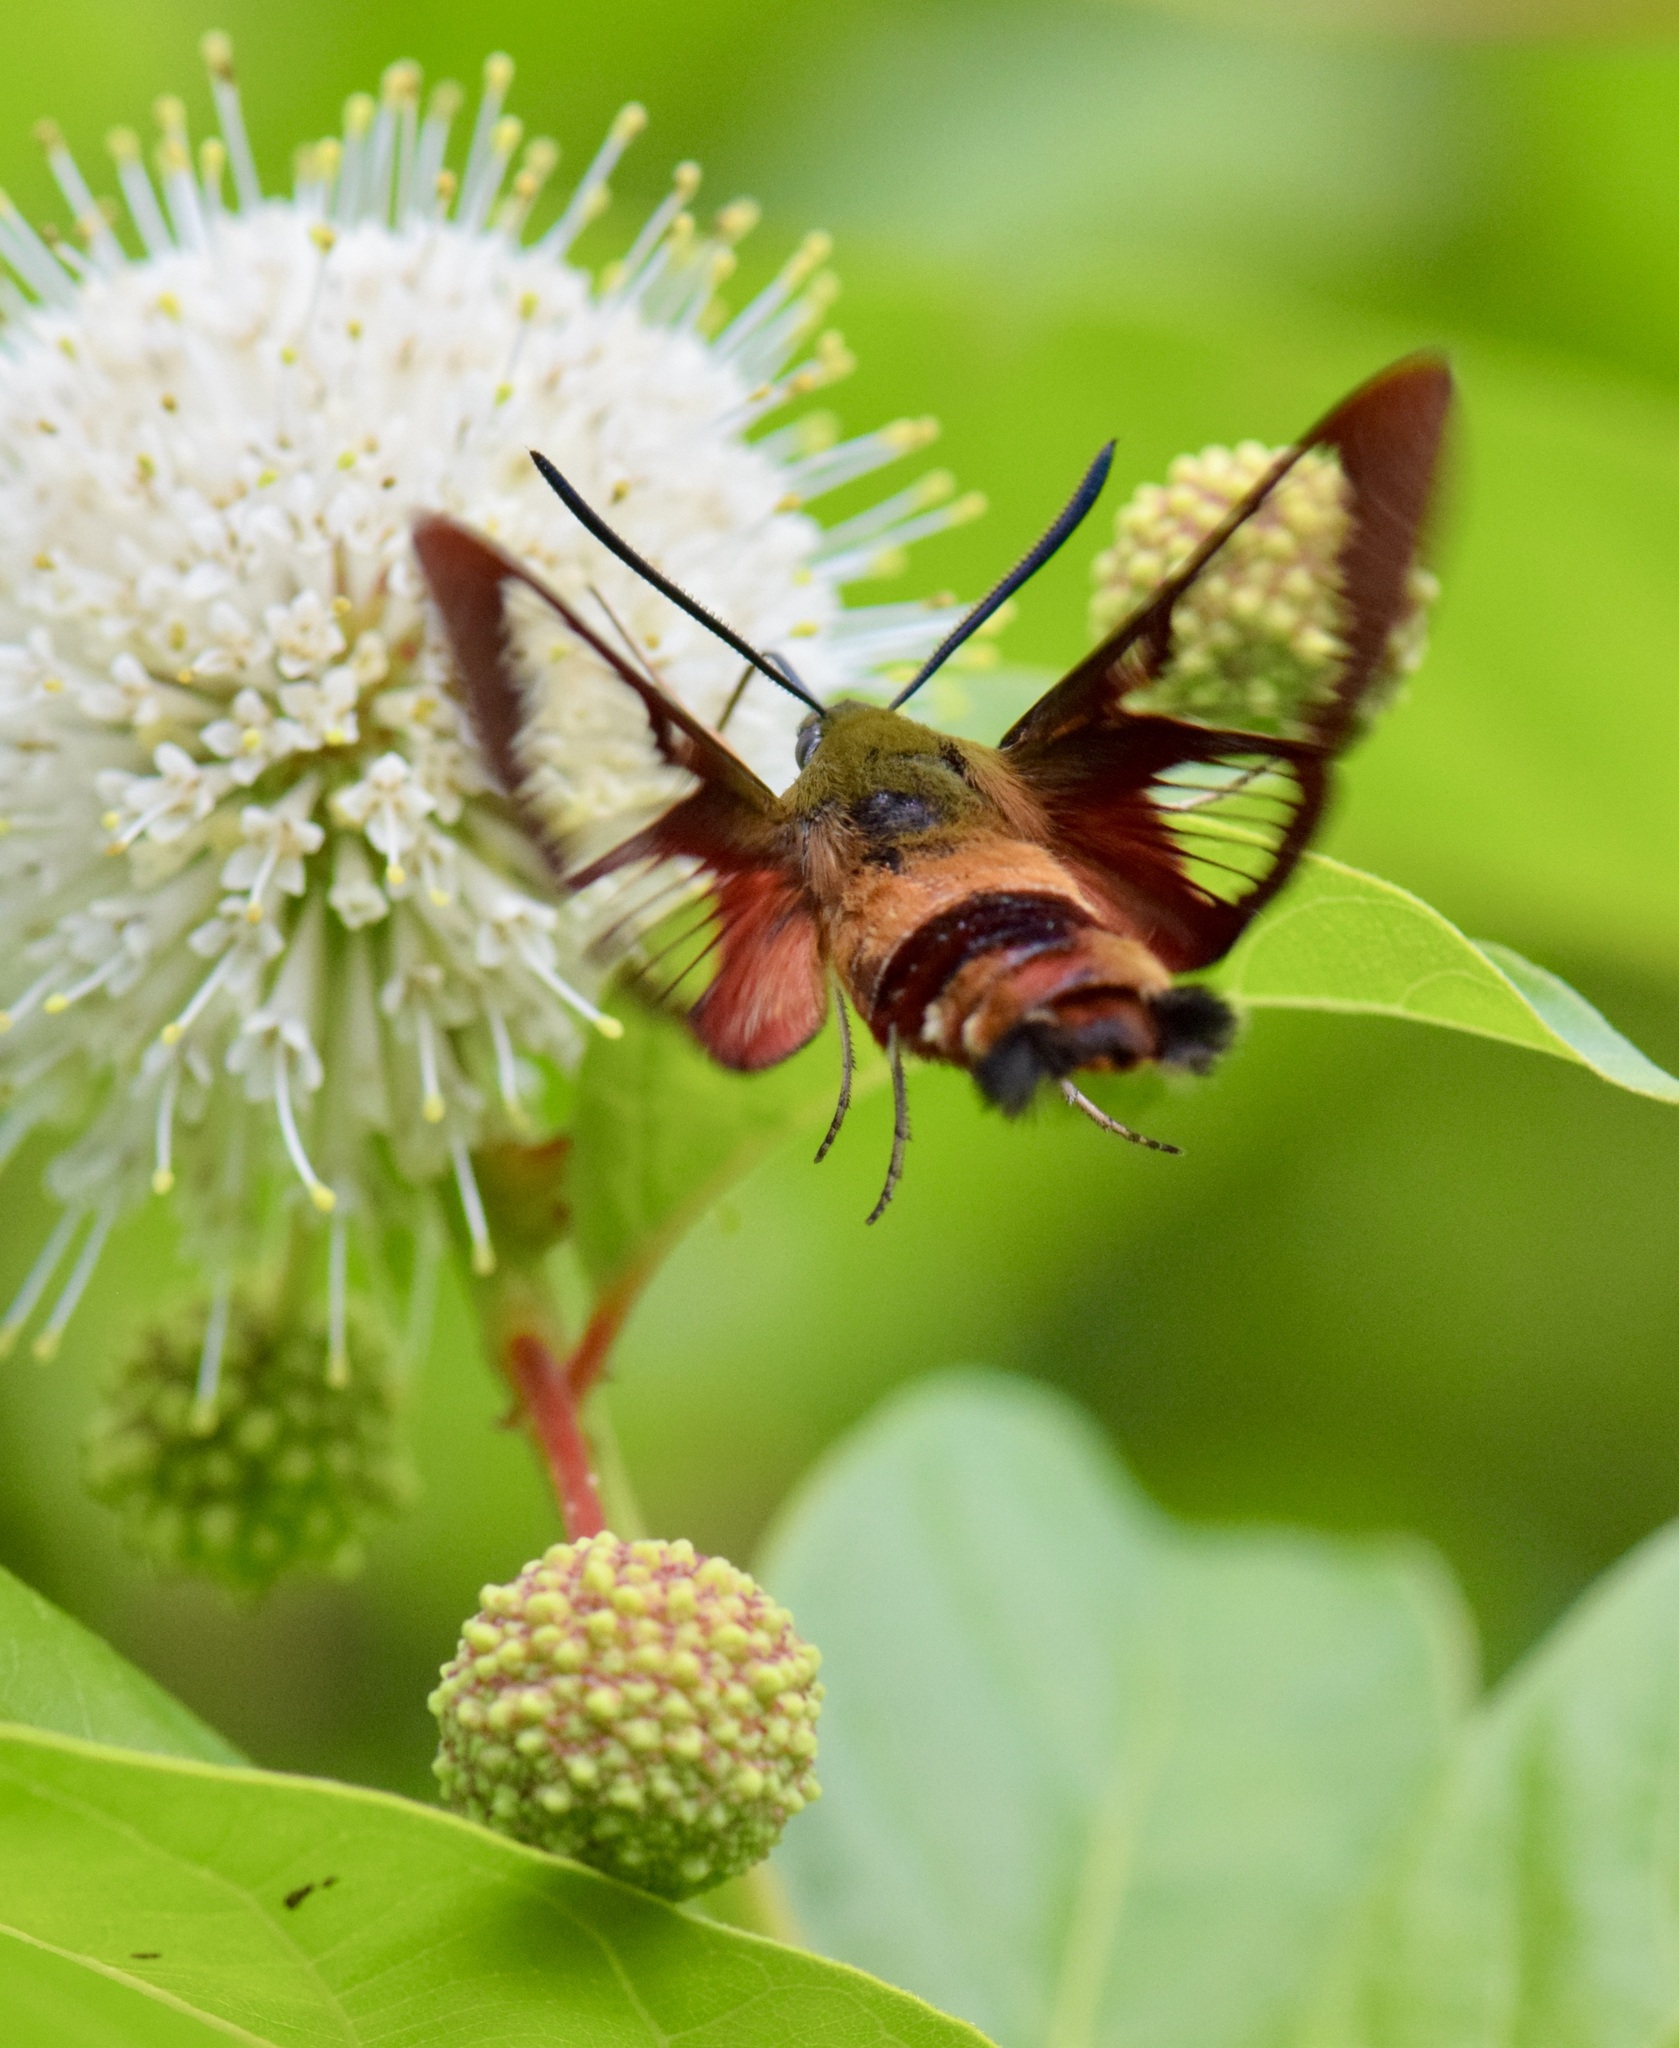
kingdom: Animalia
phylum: Arthropoda
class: Insecta
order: Lepidoptera
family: Sphingidae
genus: Hemaris
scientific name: Hemaris thysbe
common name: Common clear-wing
